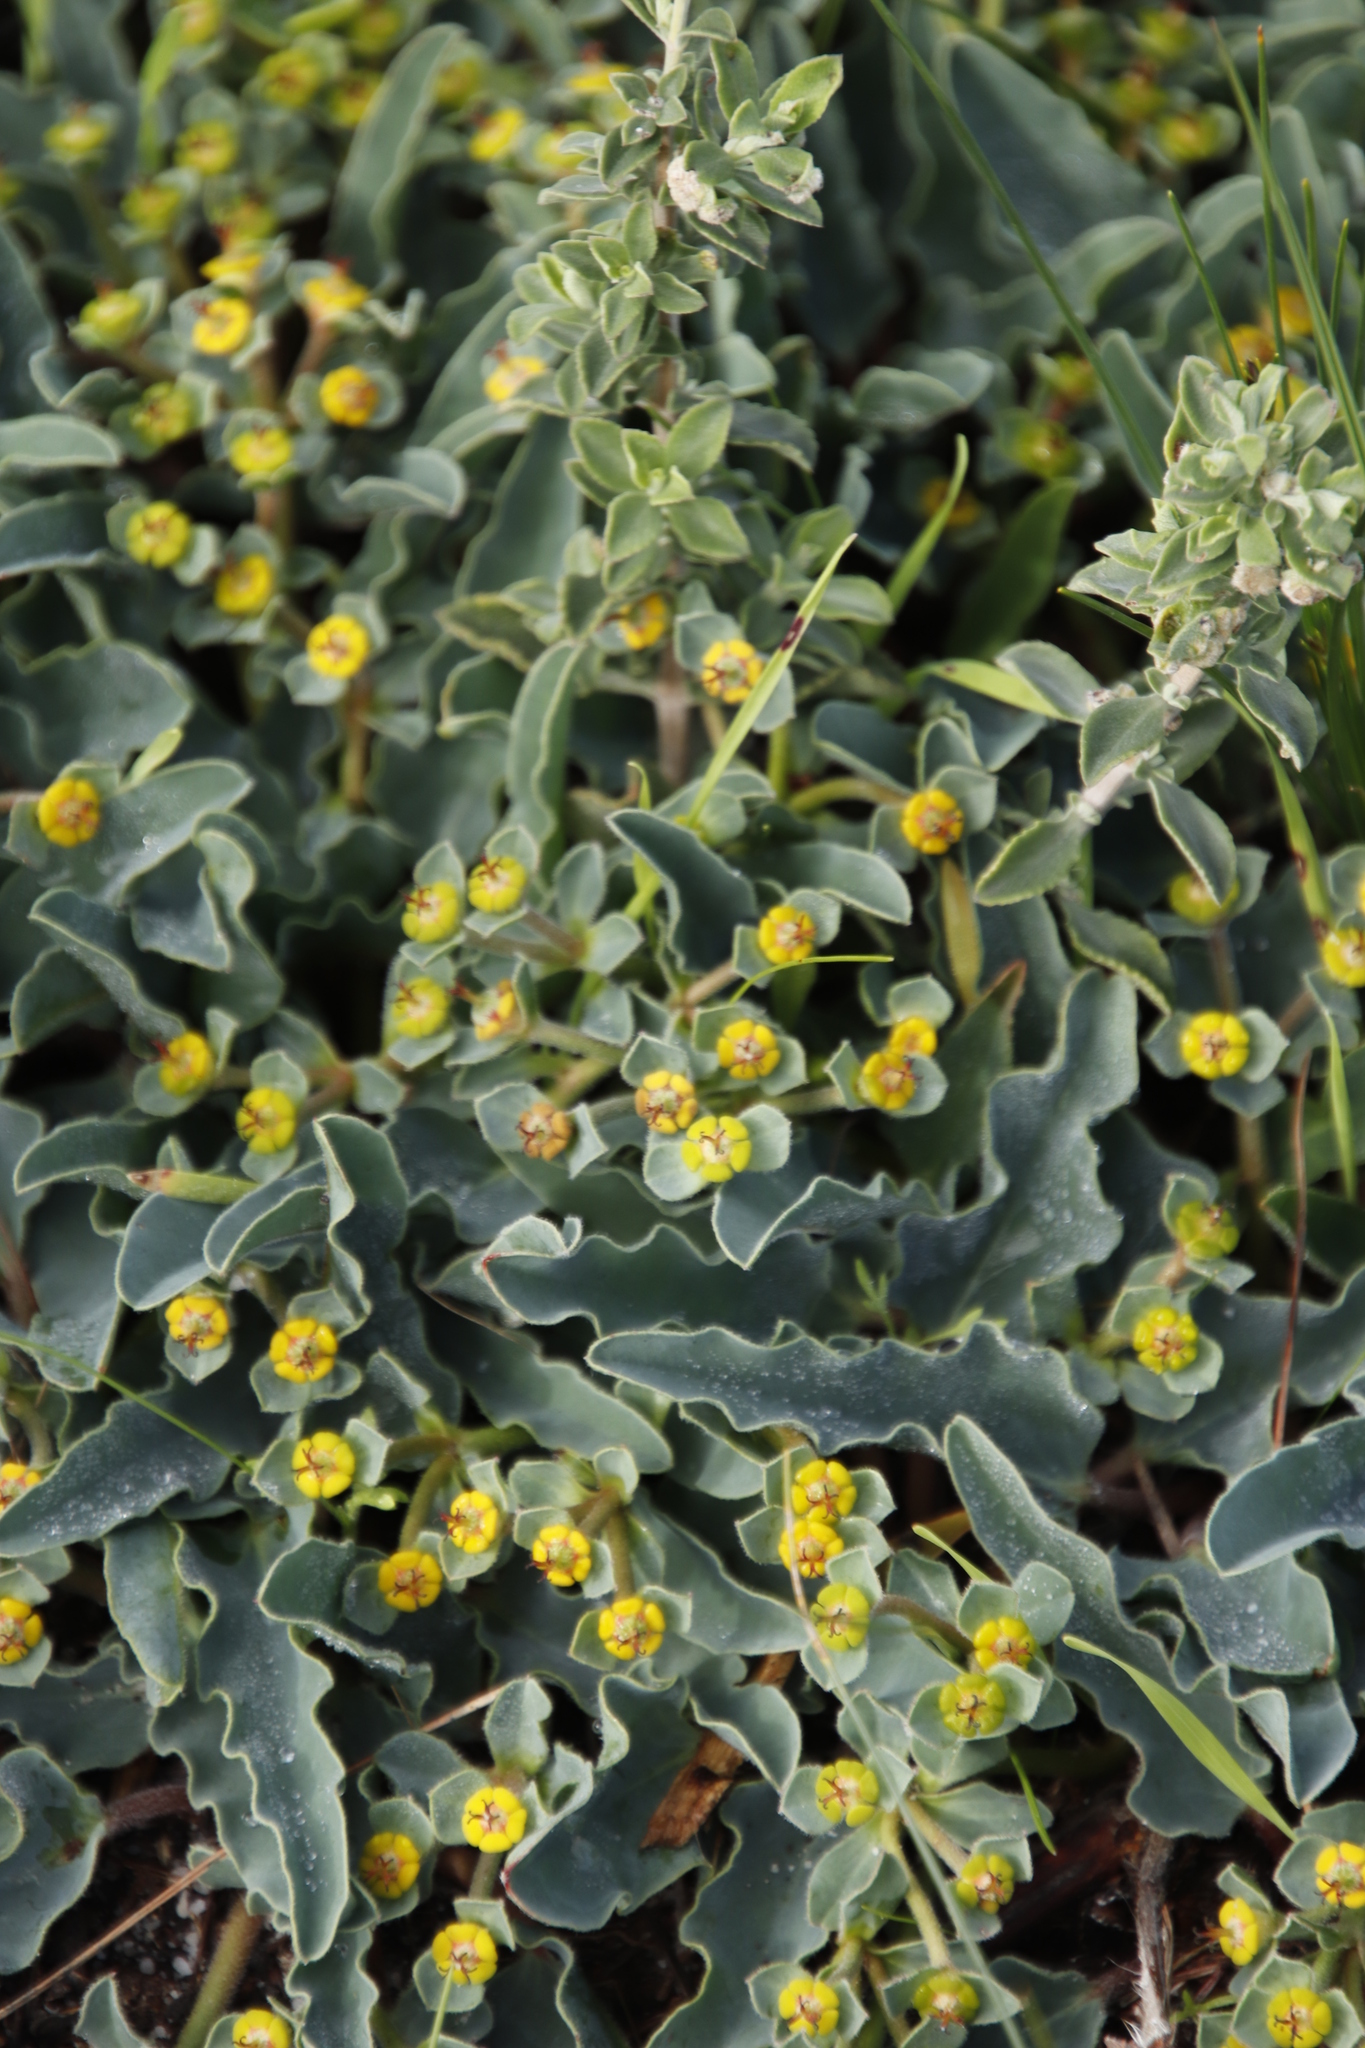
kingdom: Plantae
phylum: Tracheophyta
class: Magnoliopsida
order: Malpighiales
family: Euphorbiaceae
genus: Euphorbia
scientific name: Euphorbia tuberosa
